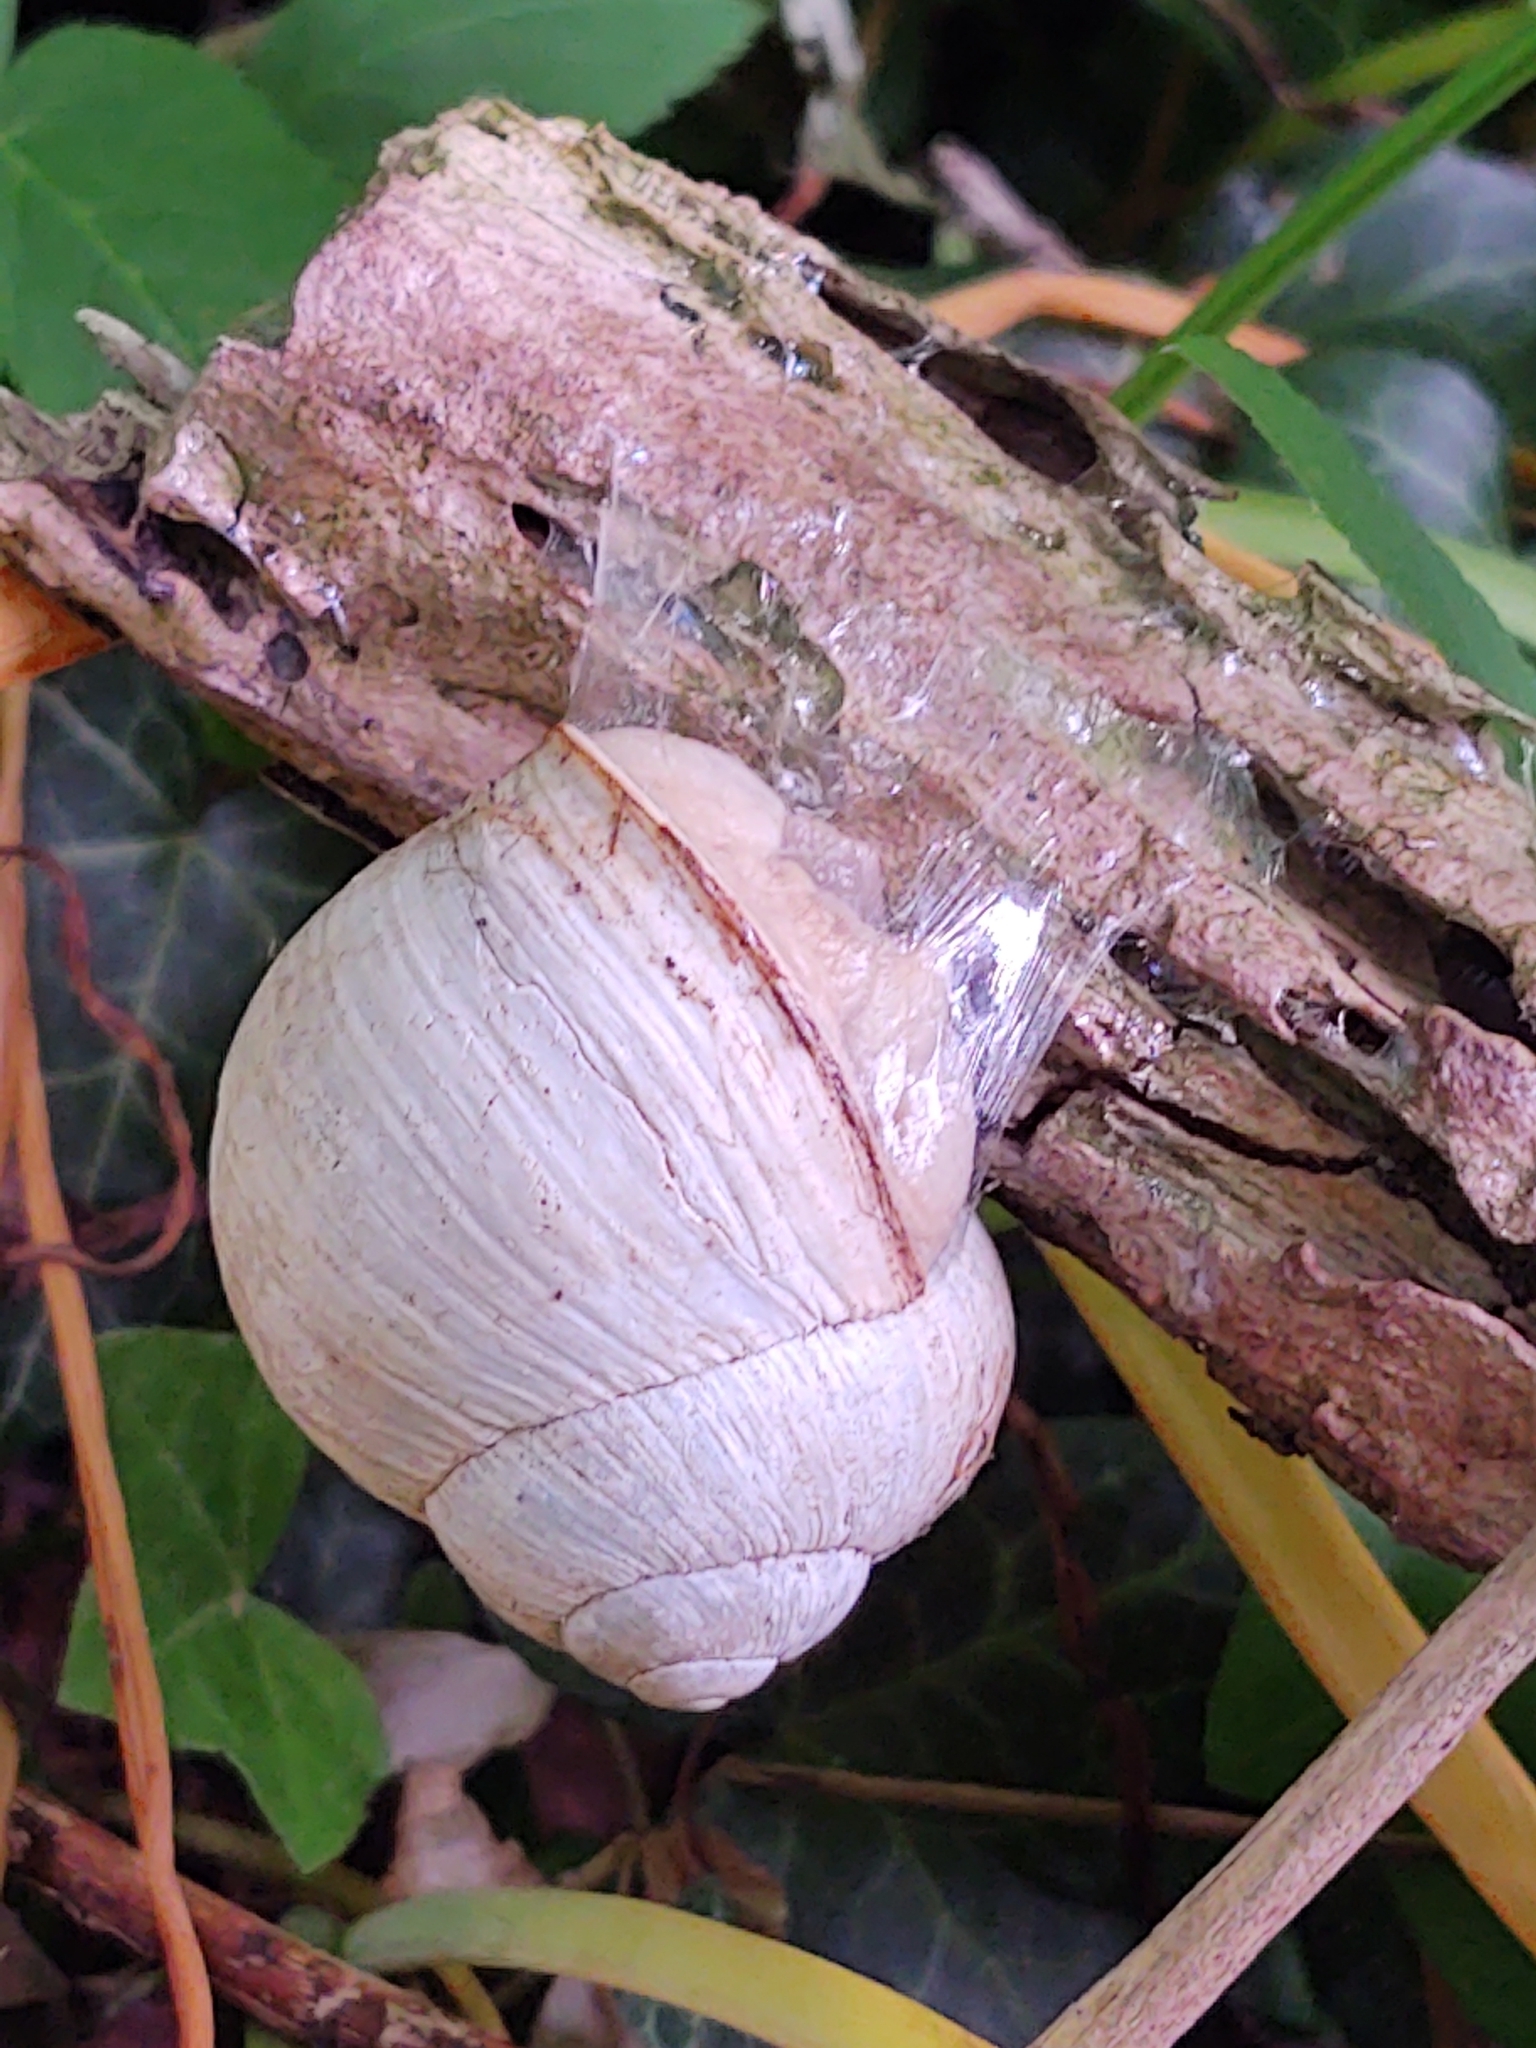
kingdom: Animalia
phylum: Mollusca
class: Gastropoda
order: Stylommatophora
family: Helicidae
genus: Helix
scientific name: Helix pomatia
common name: Roman snail
